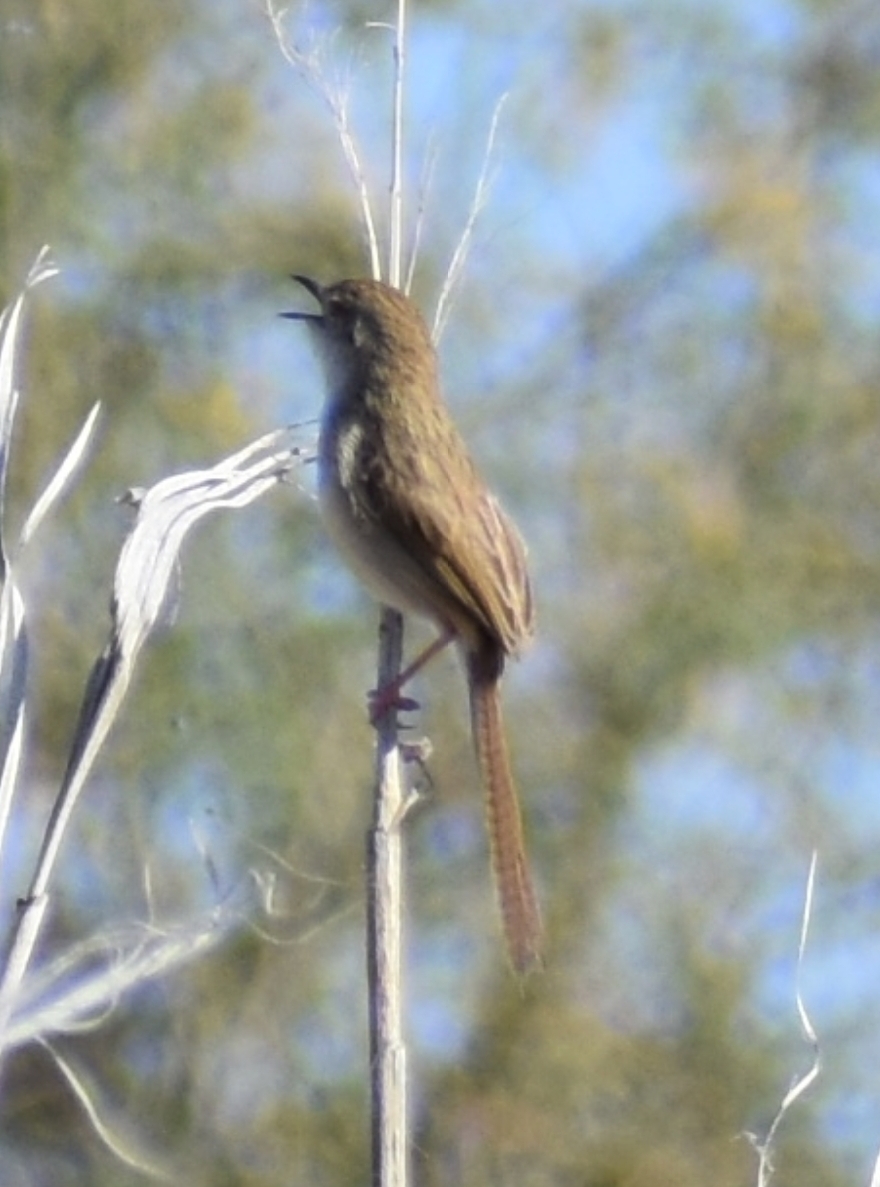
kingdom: Animalia
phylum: Chordata
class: Aves
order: Passeriformes
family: Cisticolidae
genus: Prinia
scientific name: Prinia lepida
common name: Delicate prinia
